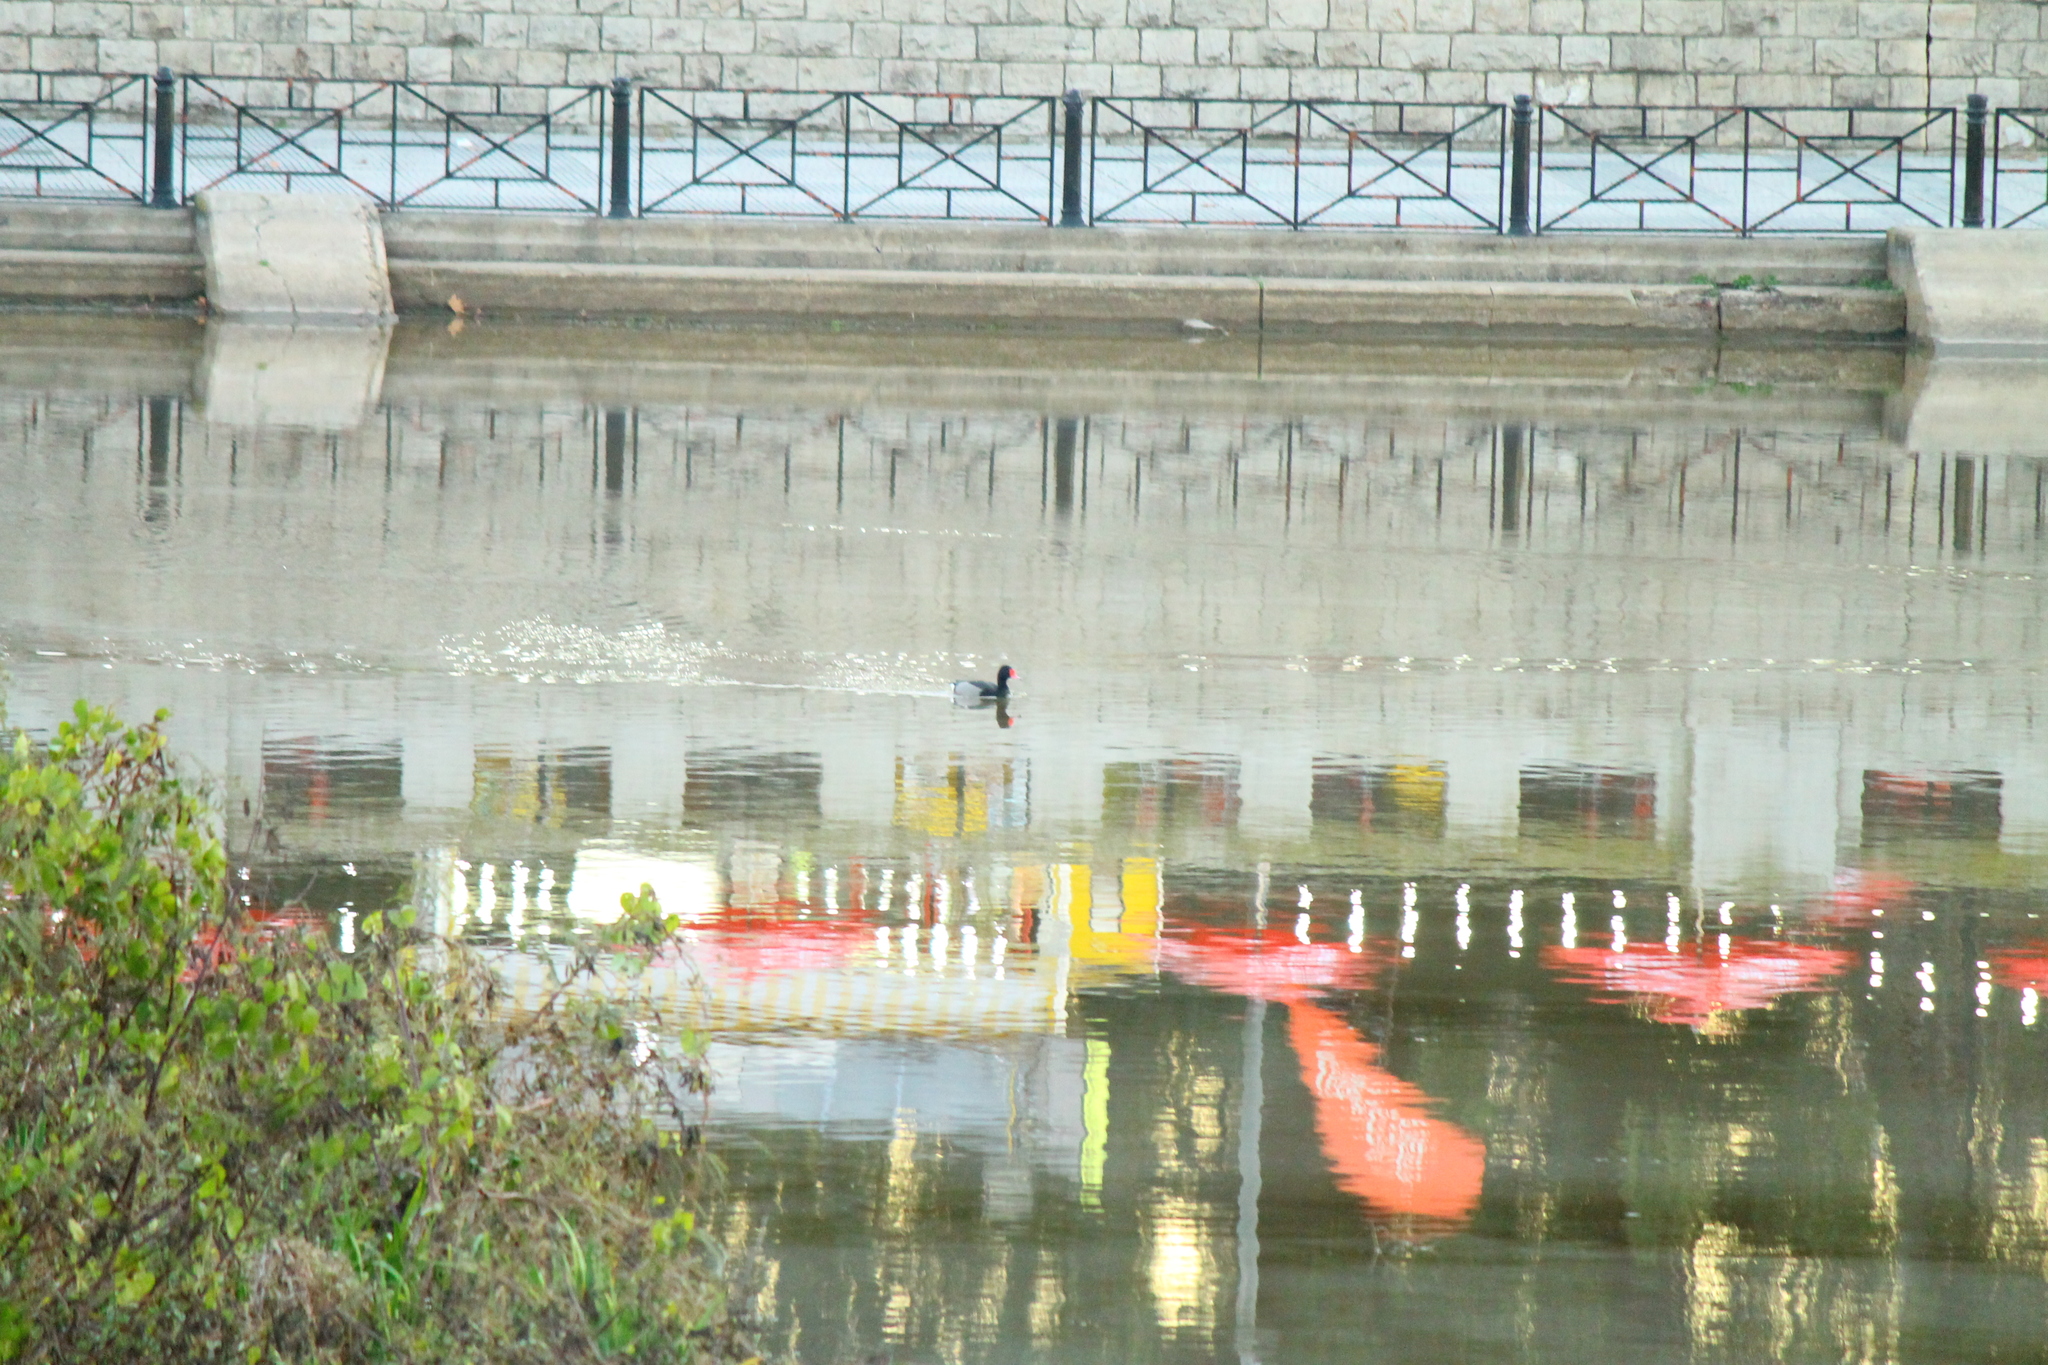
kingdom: Animalia
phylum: Chordata
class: Aves
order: Anseriformes
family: Anatidae
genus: Netta
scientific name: Netta peposaca
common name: Rosy-billed pochard
